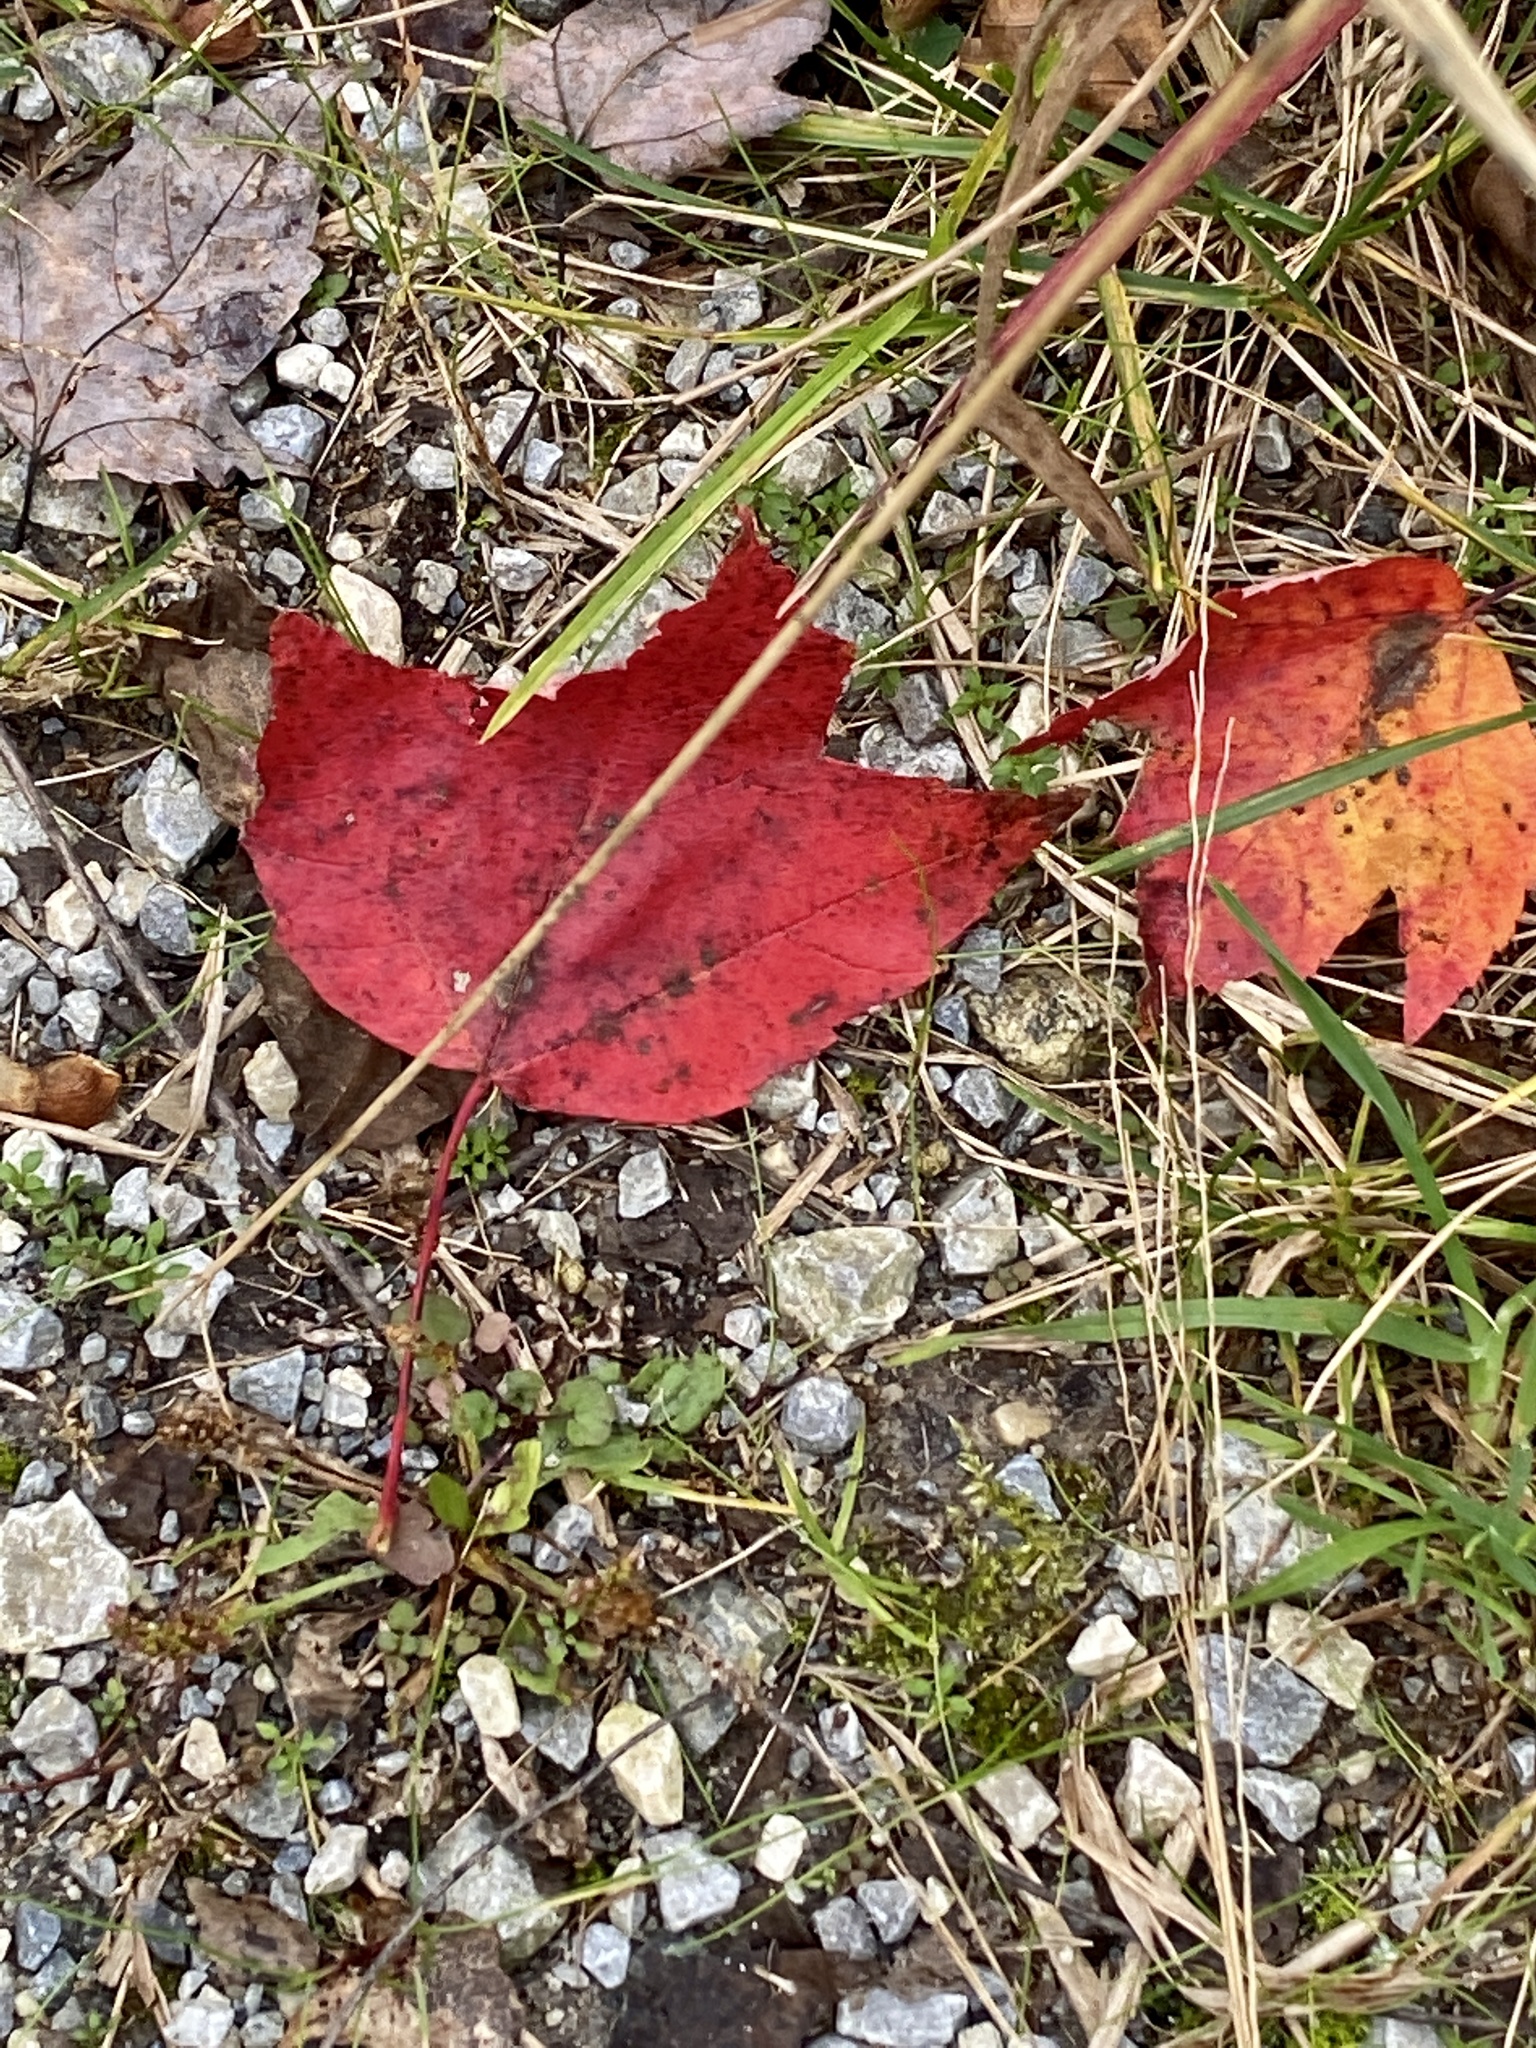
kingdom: Plantae
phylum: Tracheophyta
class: Magnoliopsida
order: Sapindales
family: Sapindaceae
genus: Acer
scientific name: Acer rubrum
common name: Red maple
